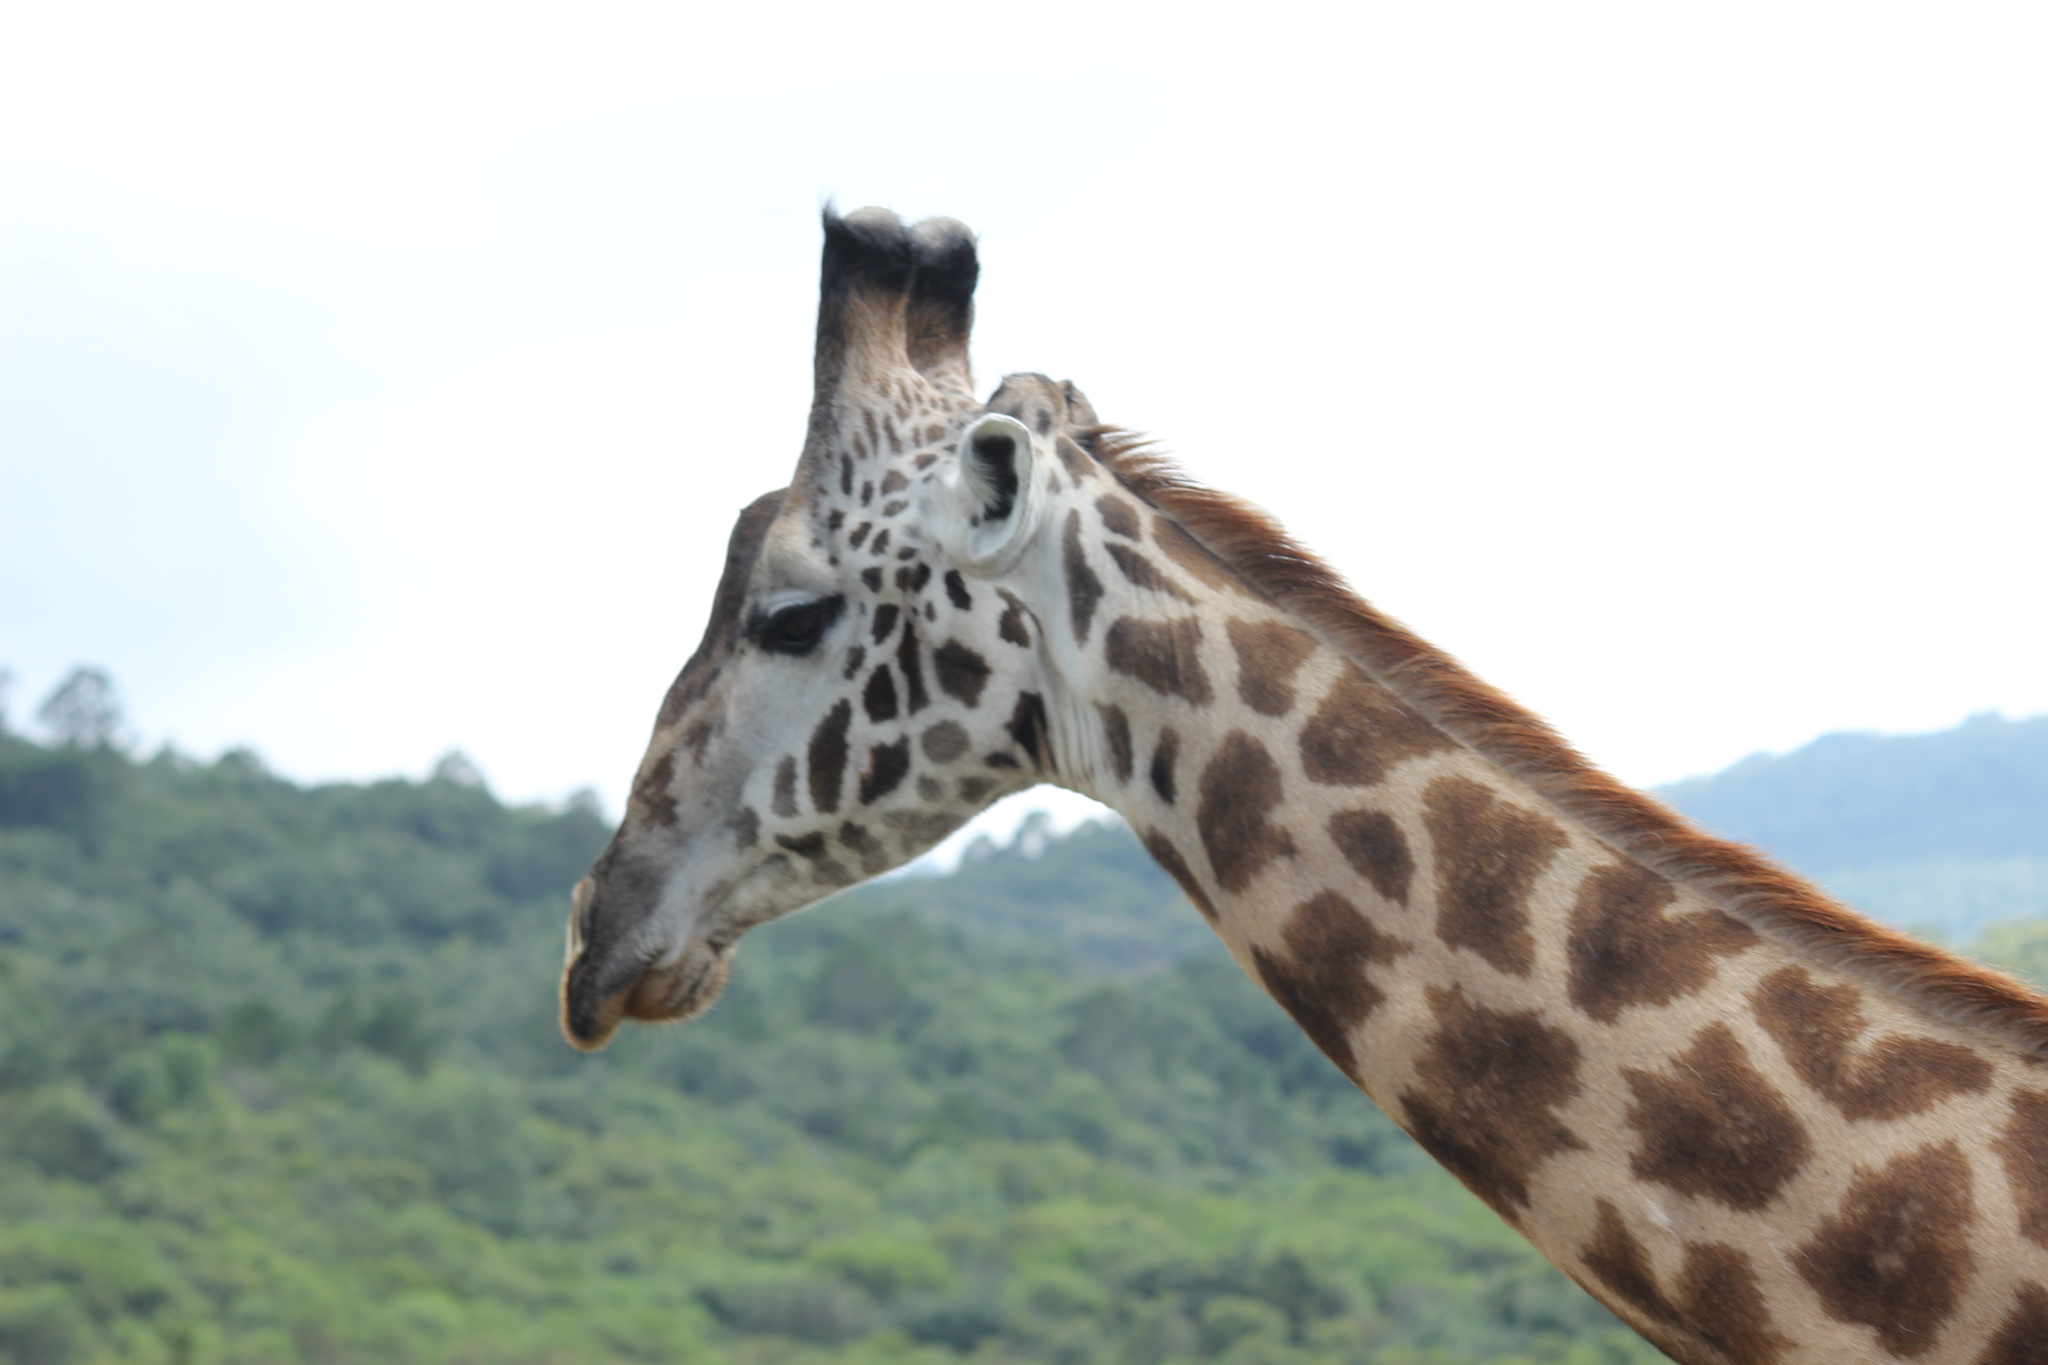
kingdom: Animalia
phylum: Chordata
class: Mammalia
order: Artiodactyla
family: Giraffidae
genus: Giraffa
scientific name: Giraffa tippelskirchi
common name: Masai giraffe
